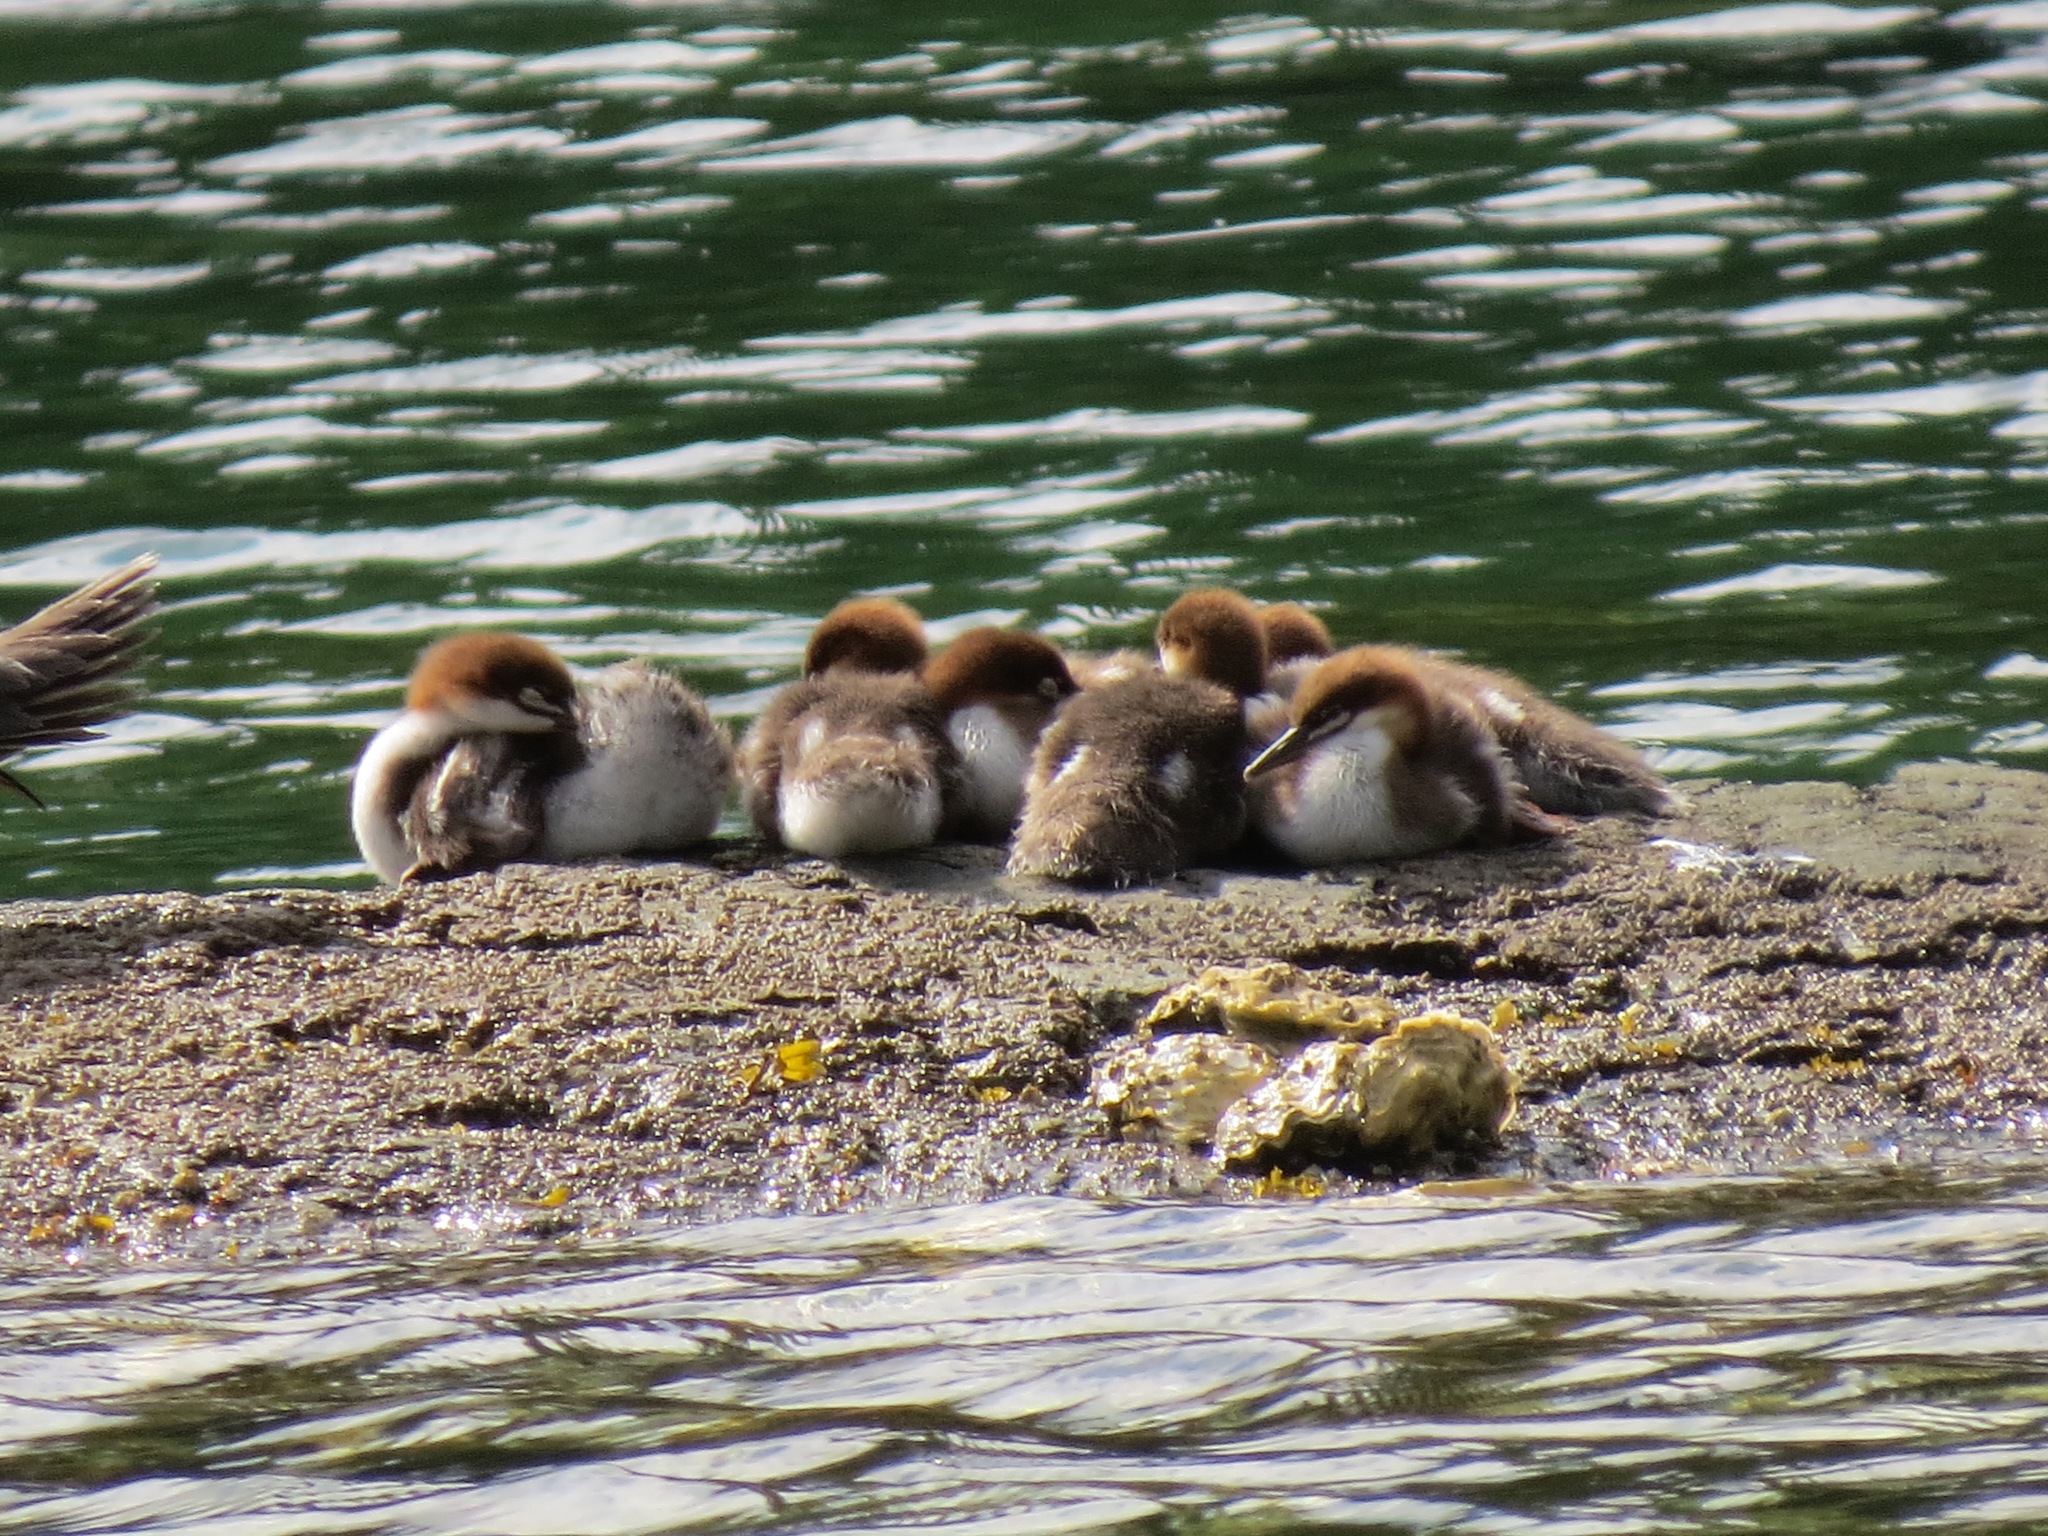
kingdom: Animalia
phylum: Chordata
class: Aves
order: Anseriformes
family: Anatidae
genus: Mergus
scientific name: Mergus merganser
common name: Common merganser
